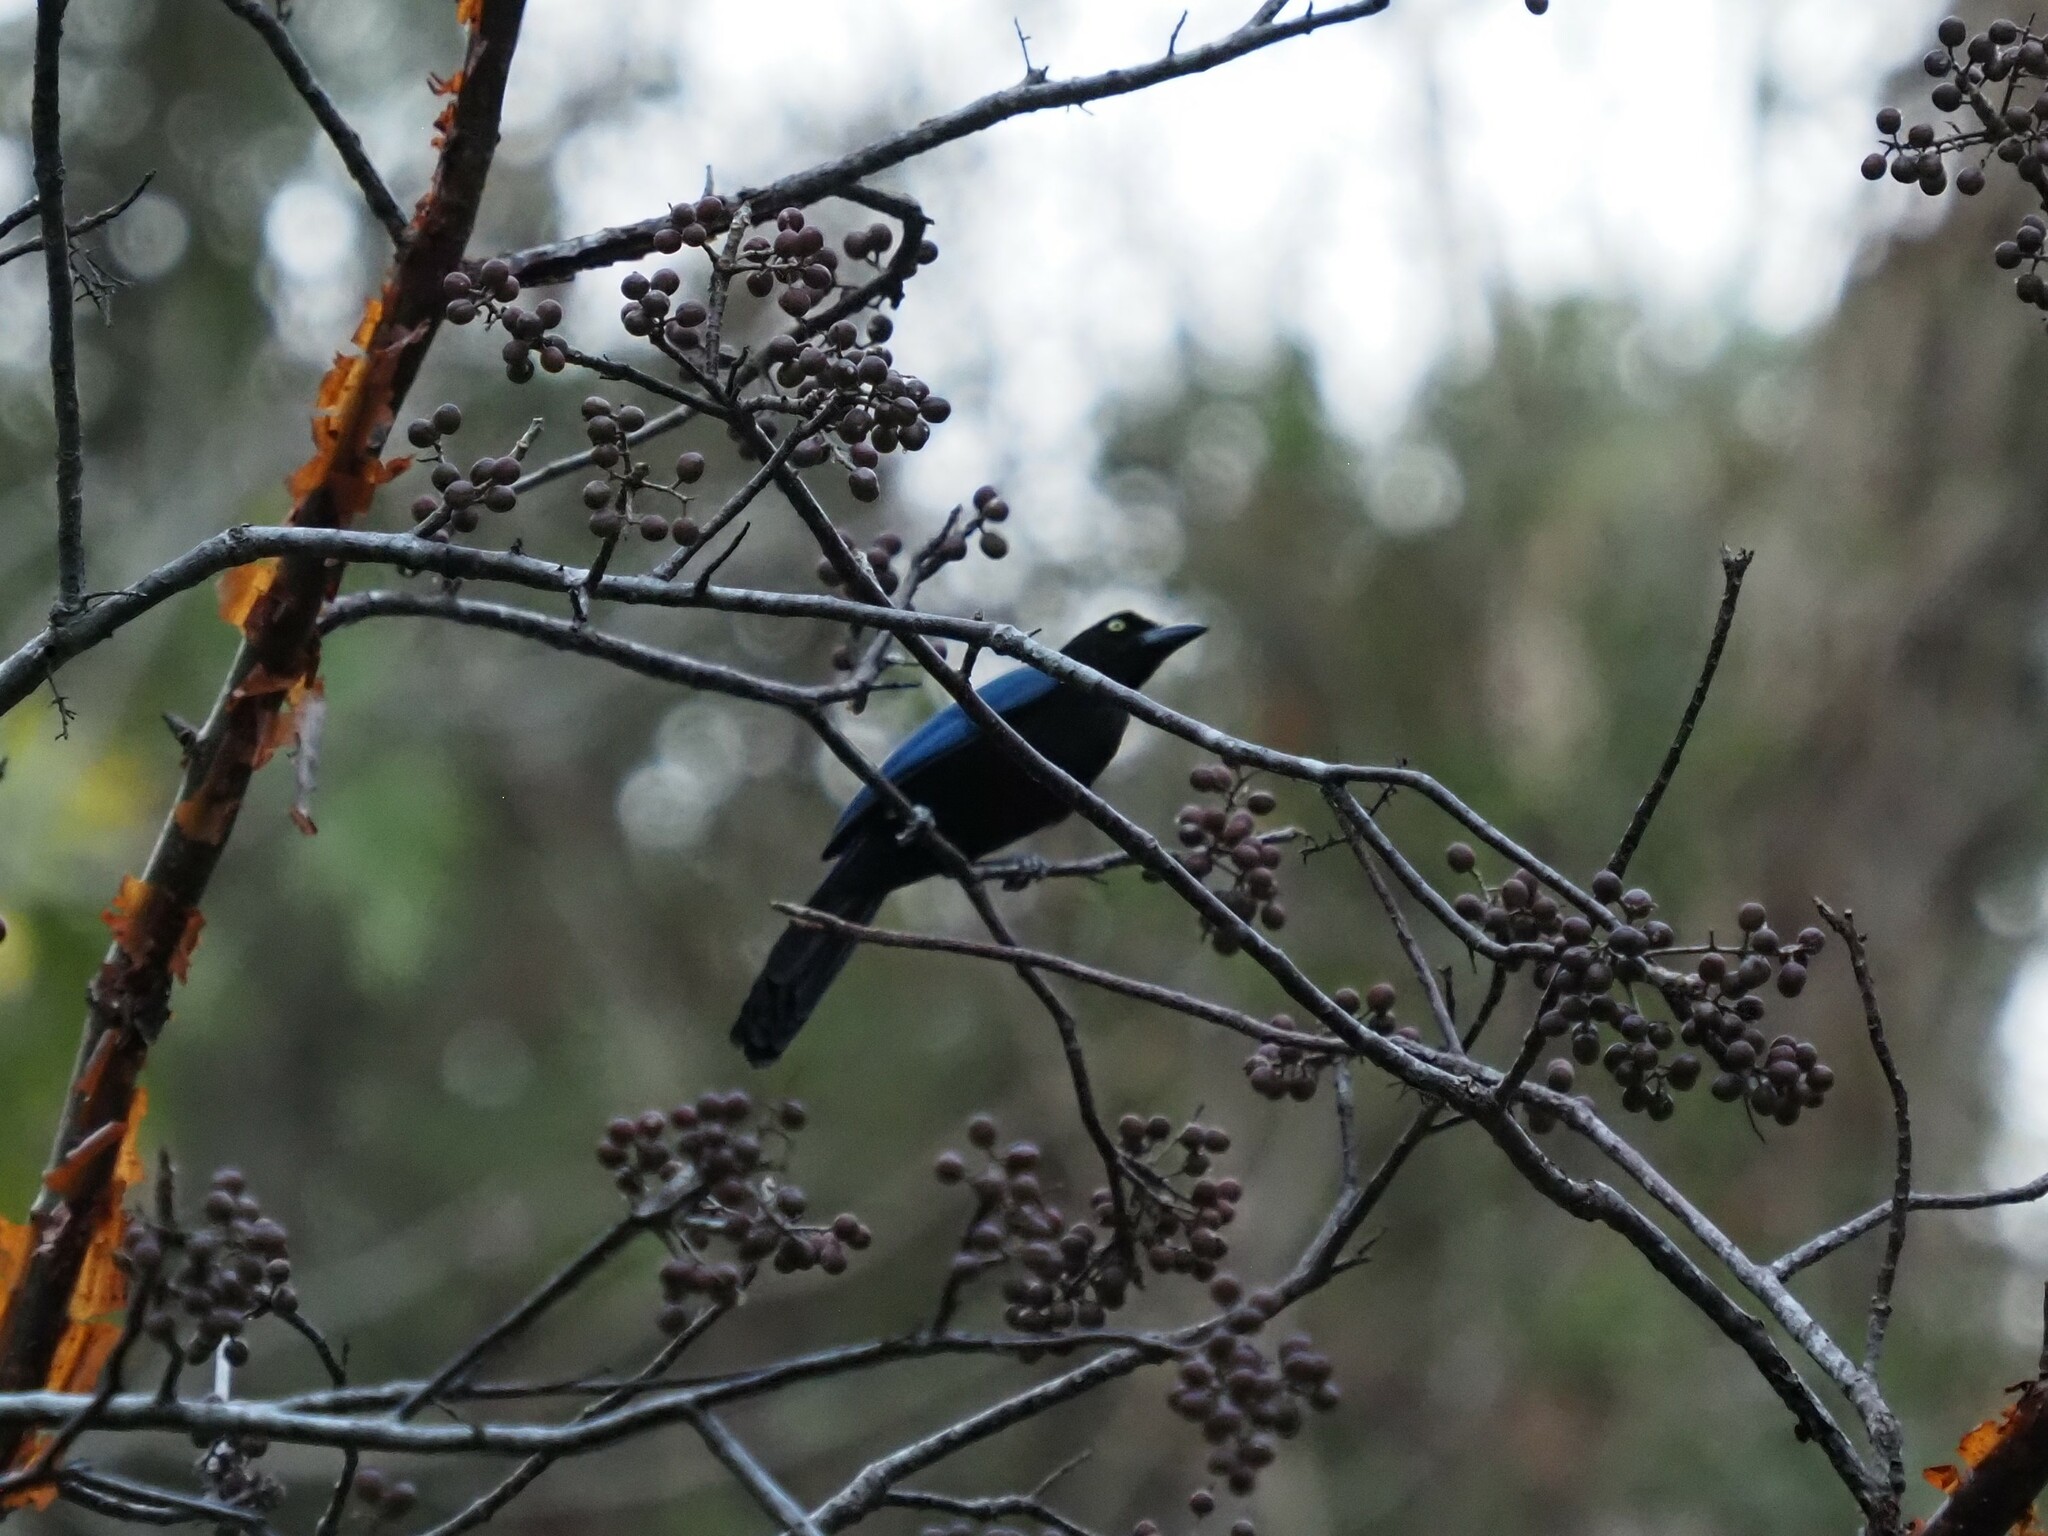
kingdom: Animalia
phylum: Chordata
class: Aves
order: Passeriformes
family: Corvidae
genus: Cyanocorax
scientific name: Cyanocorax sanblasianus
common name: San blas jay
